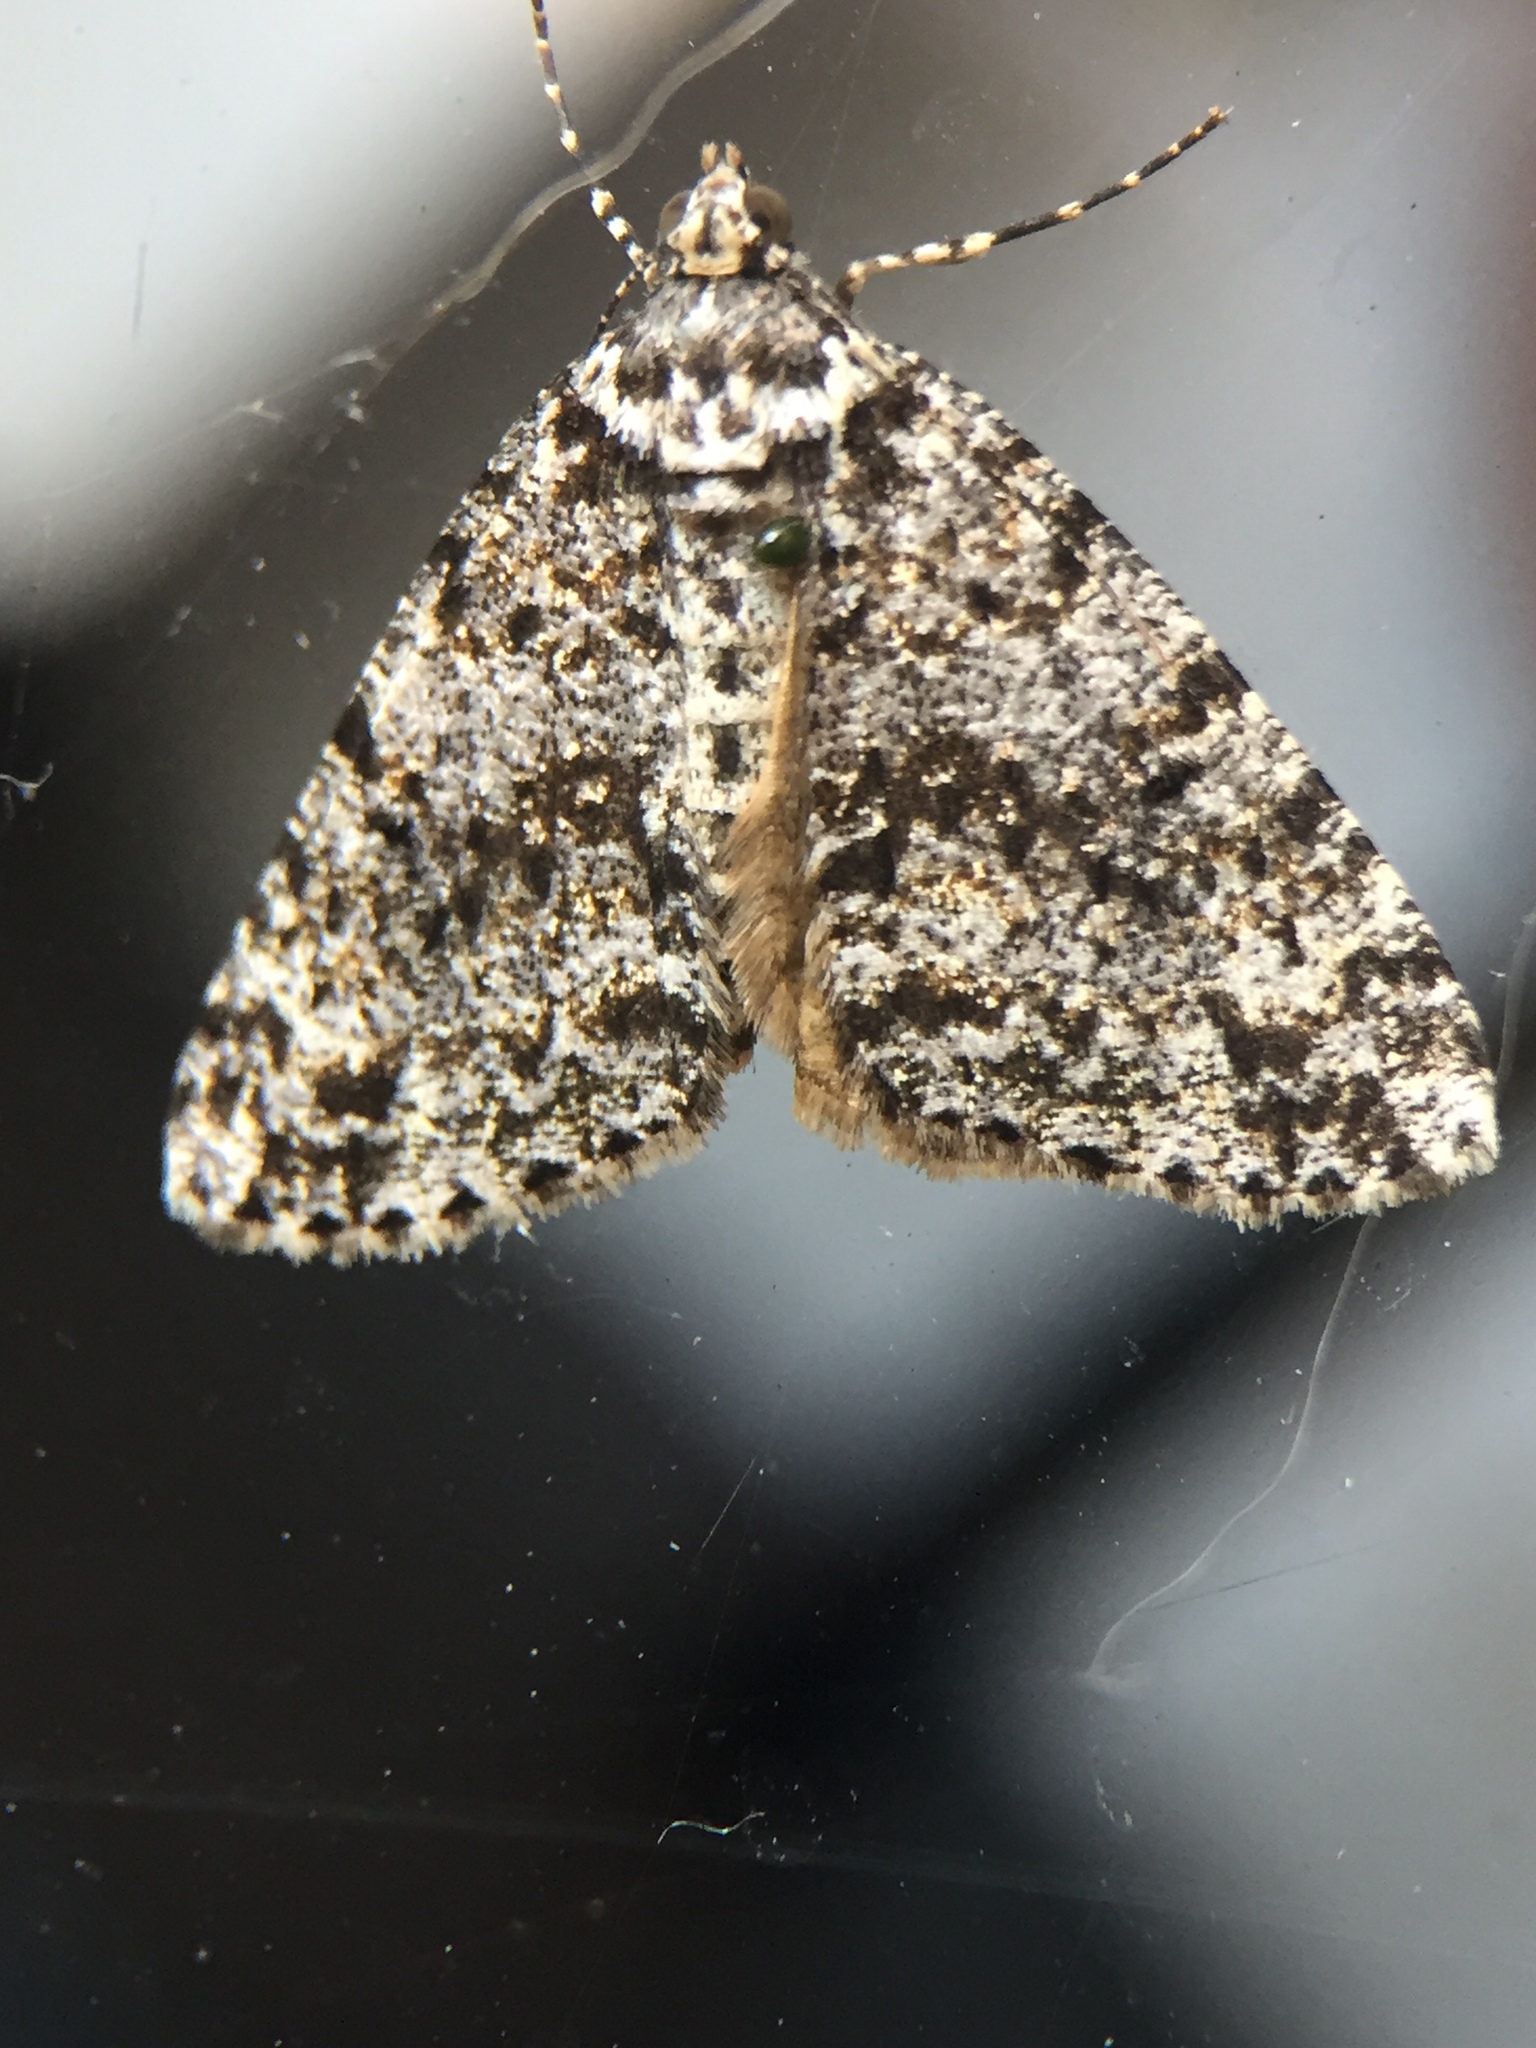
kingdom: Animalia
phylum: Arthropoda
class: Insecta
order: Lepidoptera
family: Geometridae
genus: Pseudocoremia
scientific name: Pseudocoremia monacha
